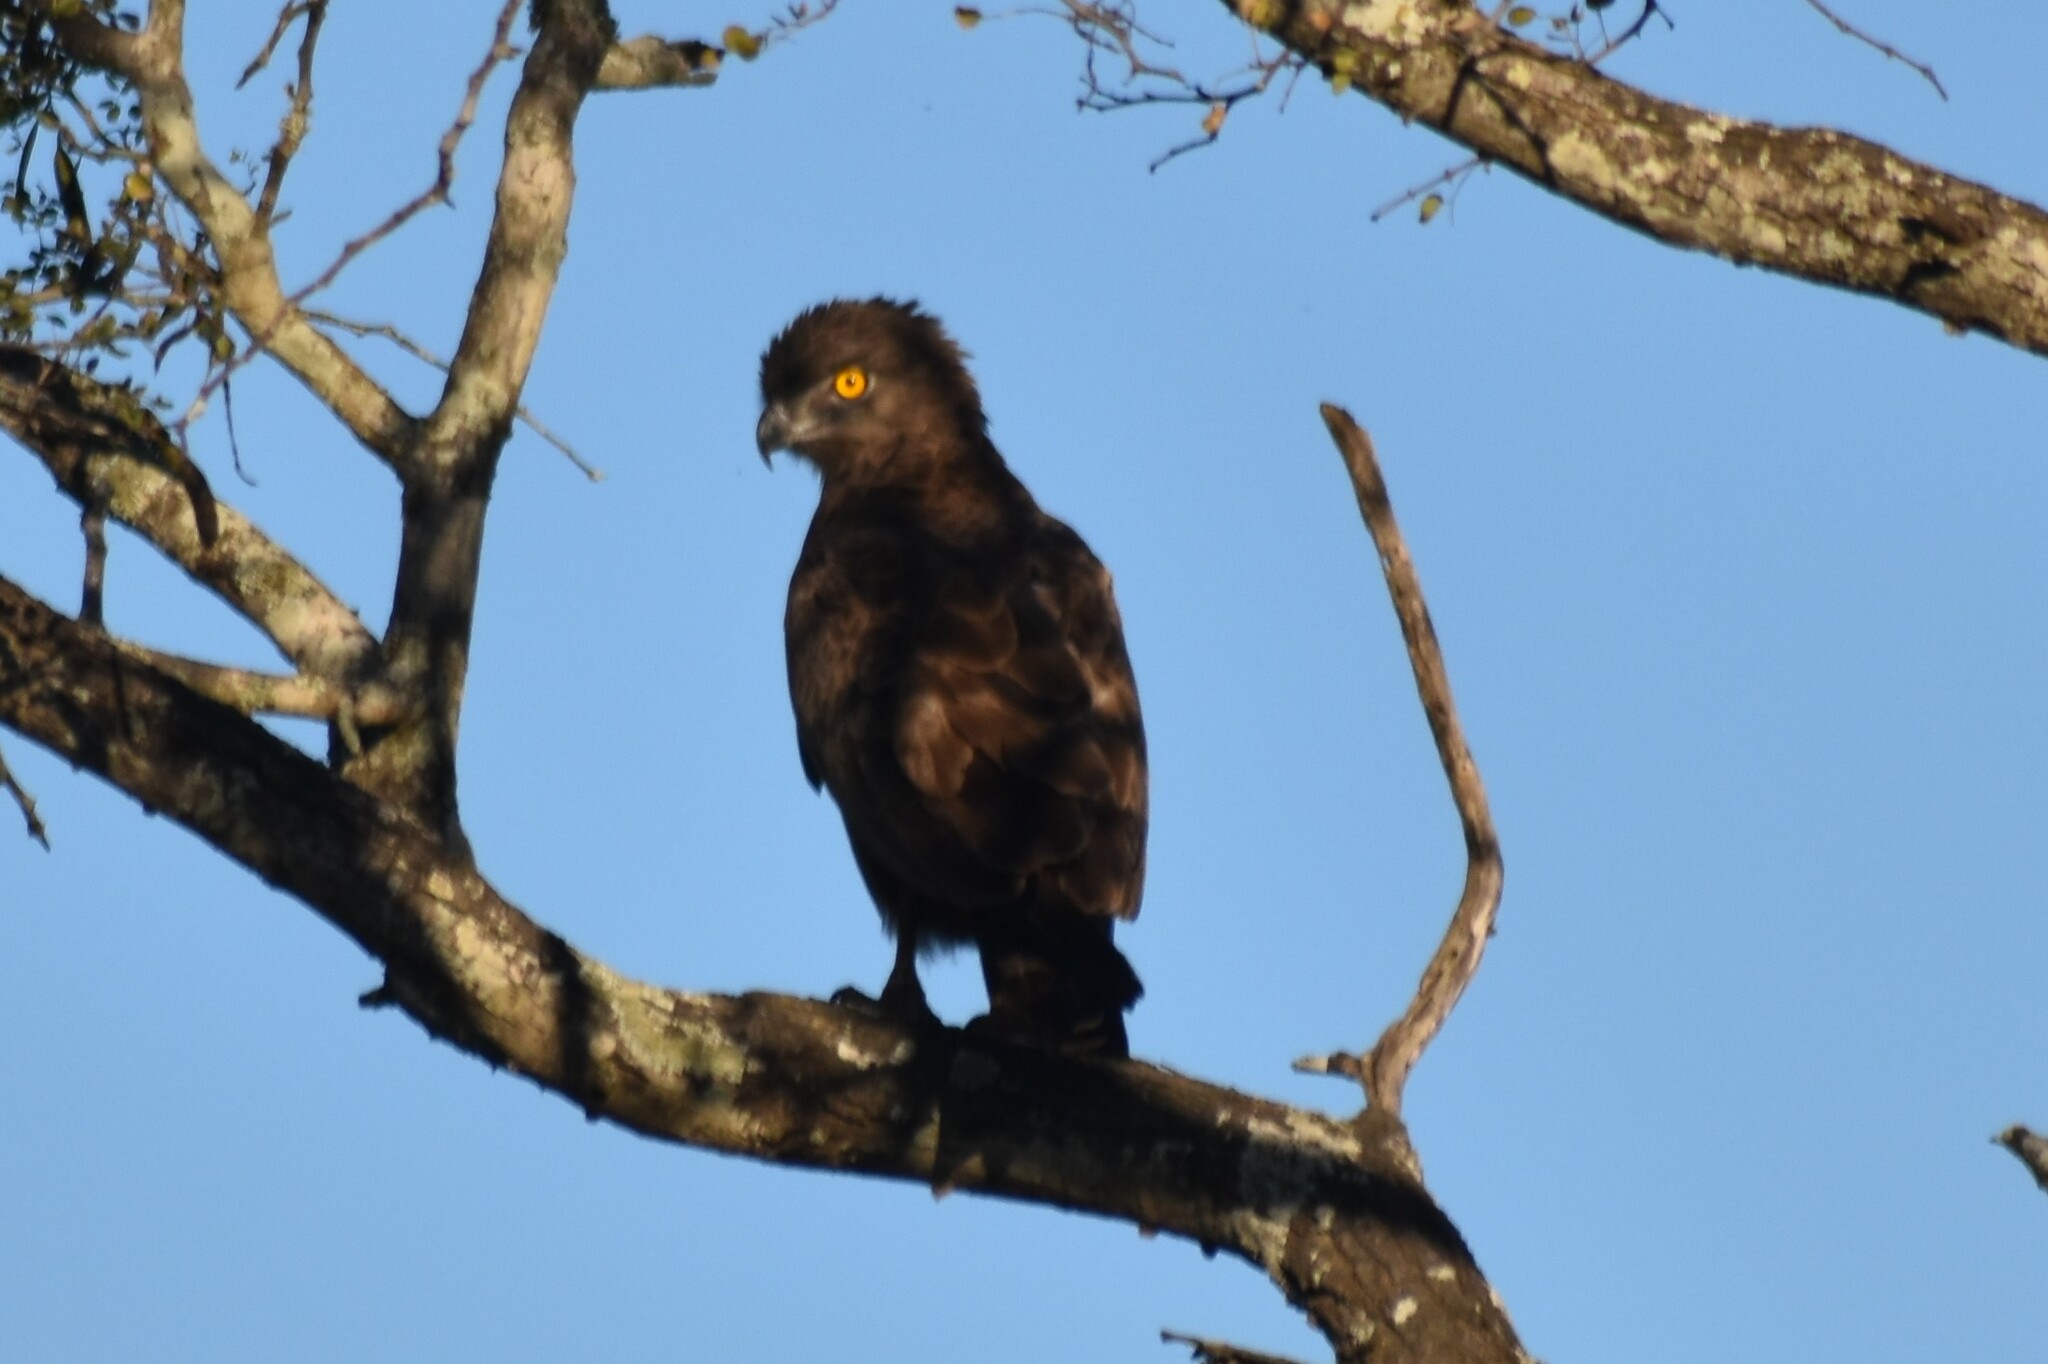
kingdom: Animalia
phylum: Chordata
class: Aves
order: Accipitriformes
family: Accipitridae
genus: Circaetus
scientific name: Circaetus cinereus
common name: Brown snake eagle
